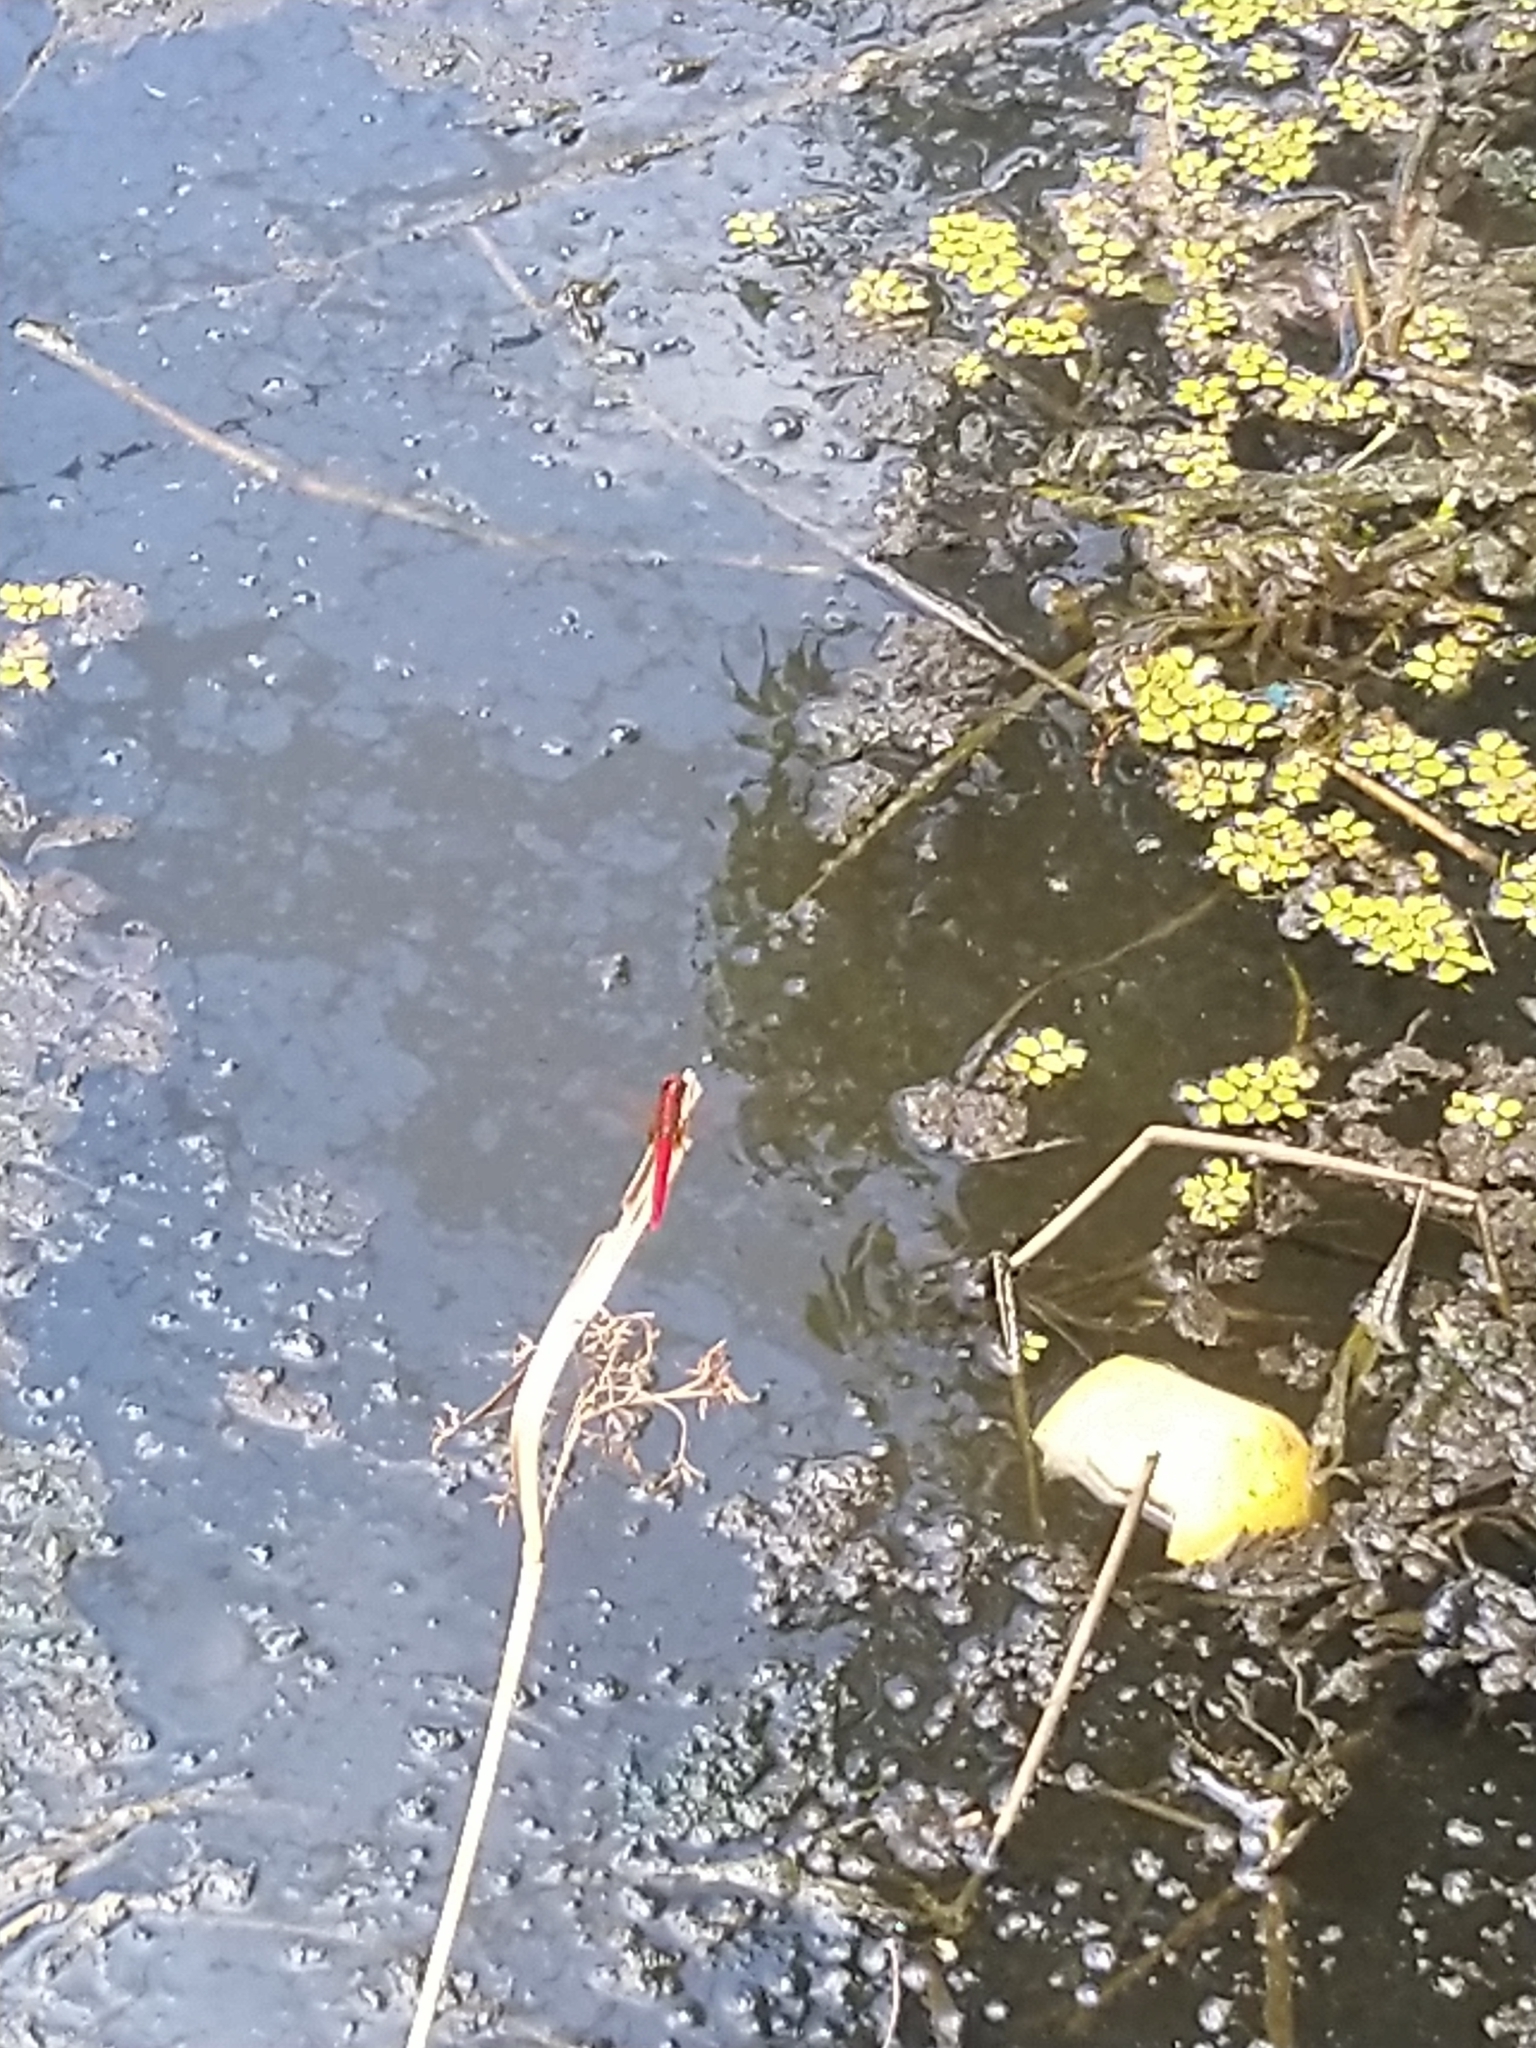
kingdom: Animalia
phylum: Arthropoda
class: Insecta
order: Odonata
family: Libellulidae
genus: Rhodothemis
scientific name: Rhodothemis rufa
